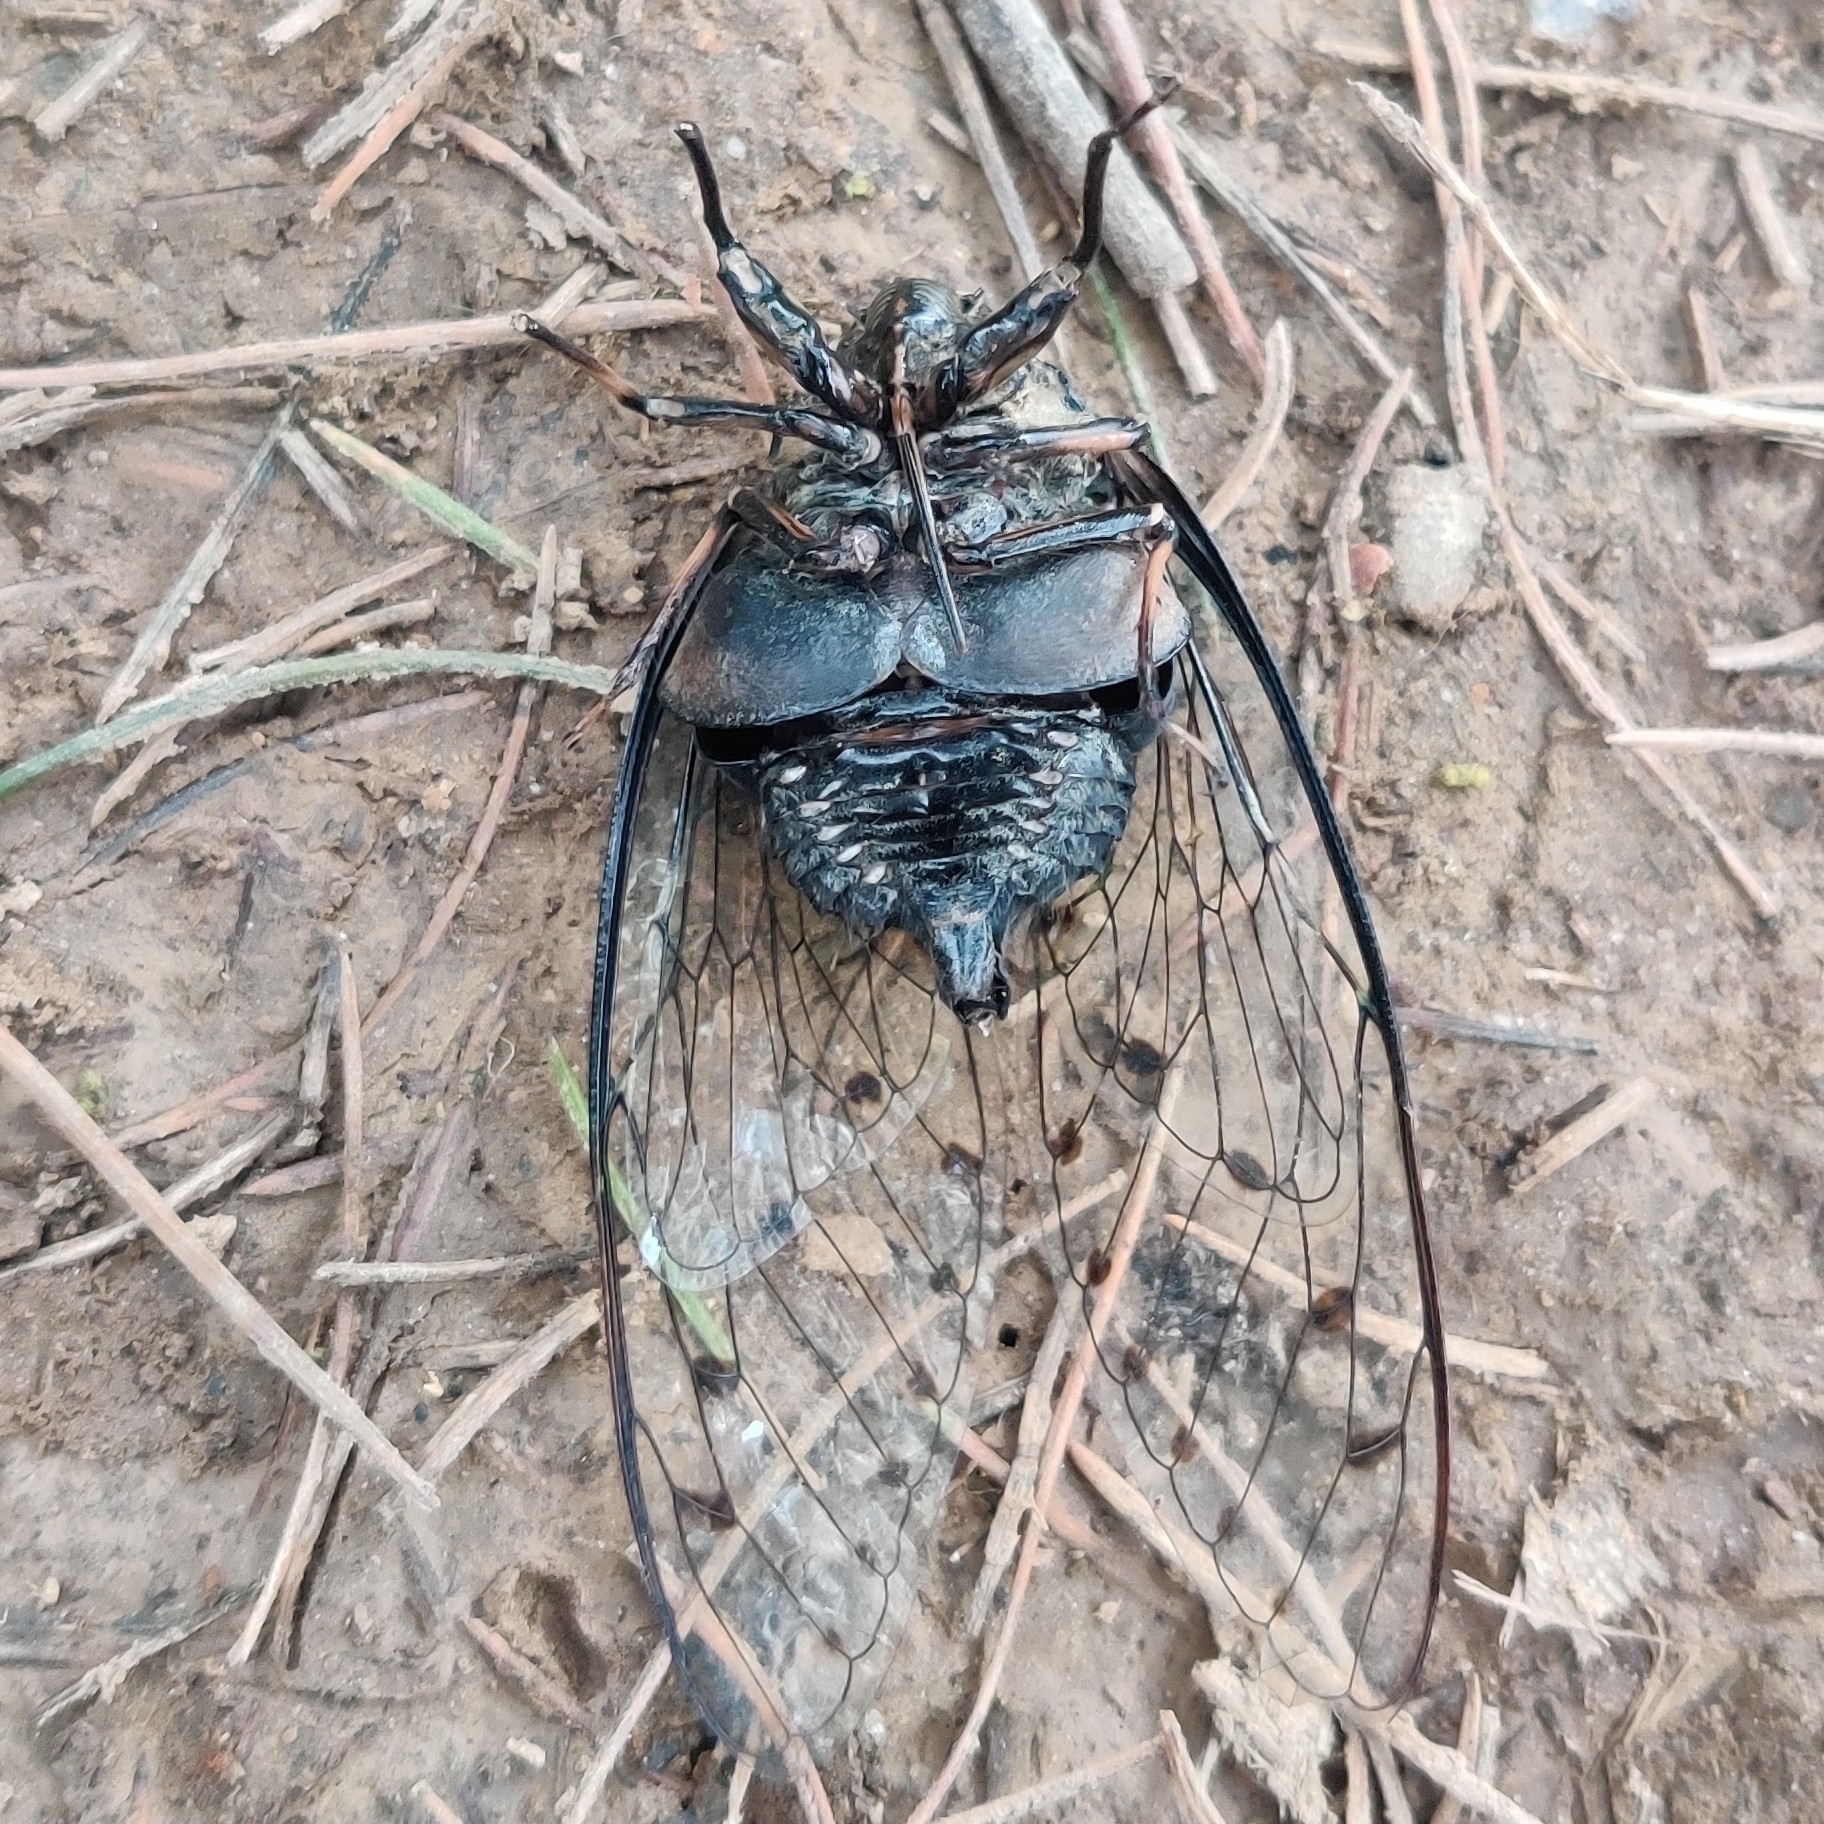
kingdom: Animalia
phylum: Arthropoda
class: Insecta
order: Hemiptera
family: Cicadidae
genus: Hyalessa
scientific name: Hyalessa obnubila
